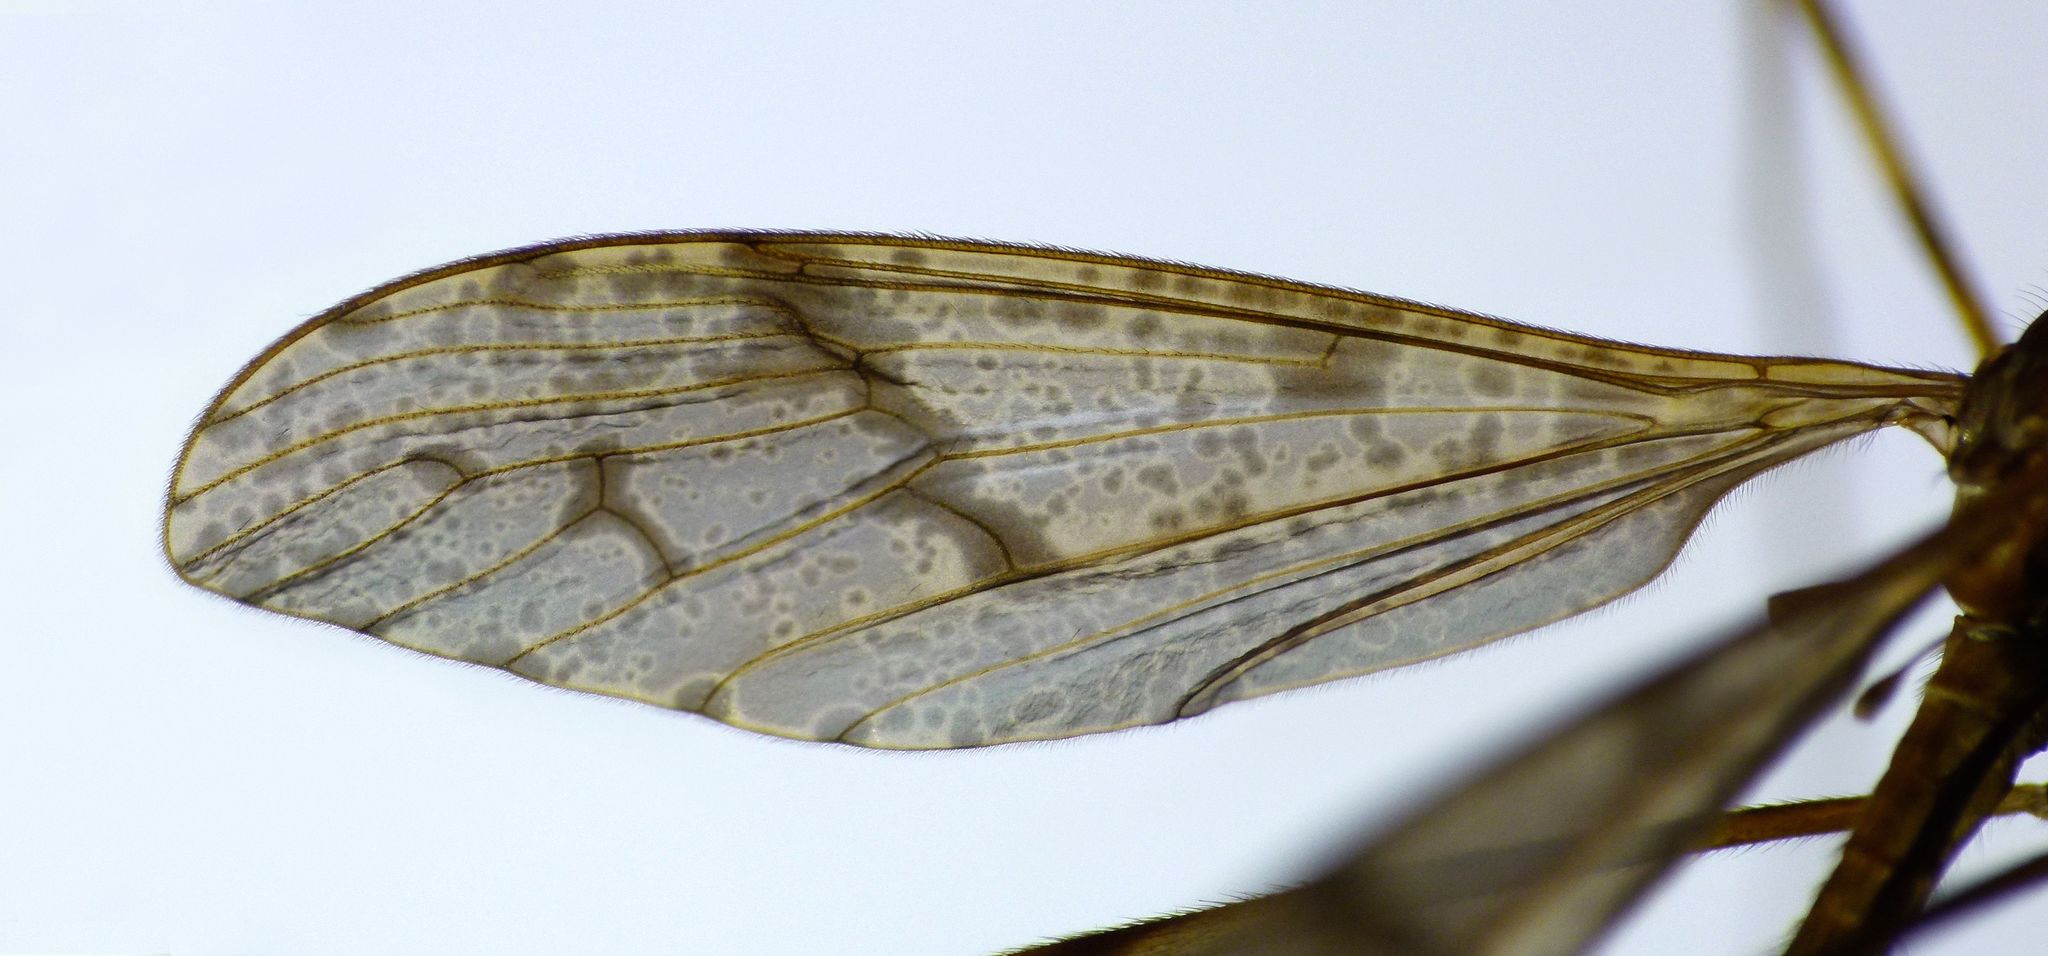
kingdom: Animalia
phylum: Arthropoda
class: Insecta
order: Diptera
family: Limoniidae
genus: Rhamphophila
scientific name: Rhamphophila sinistra
